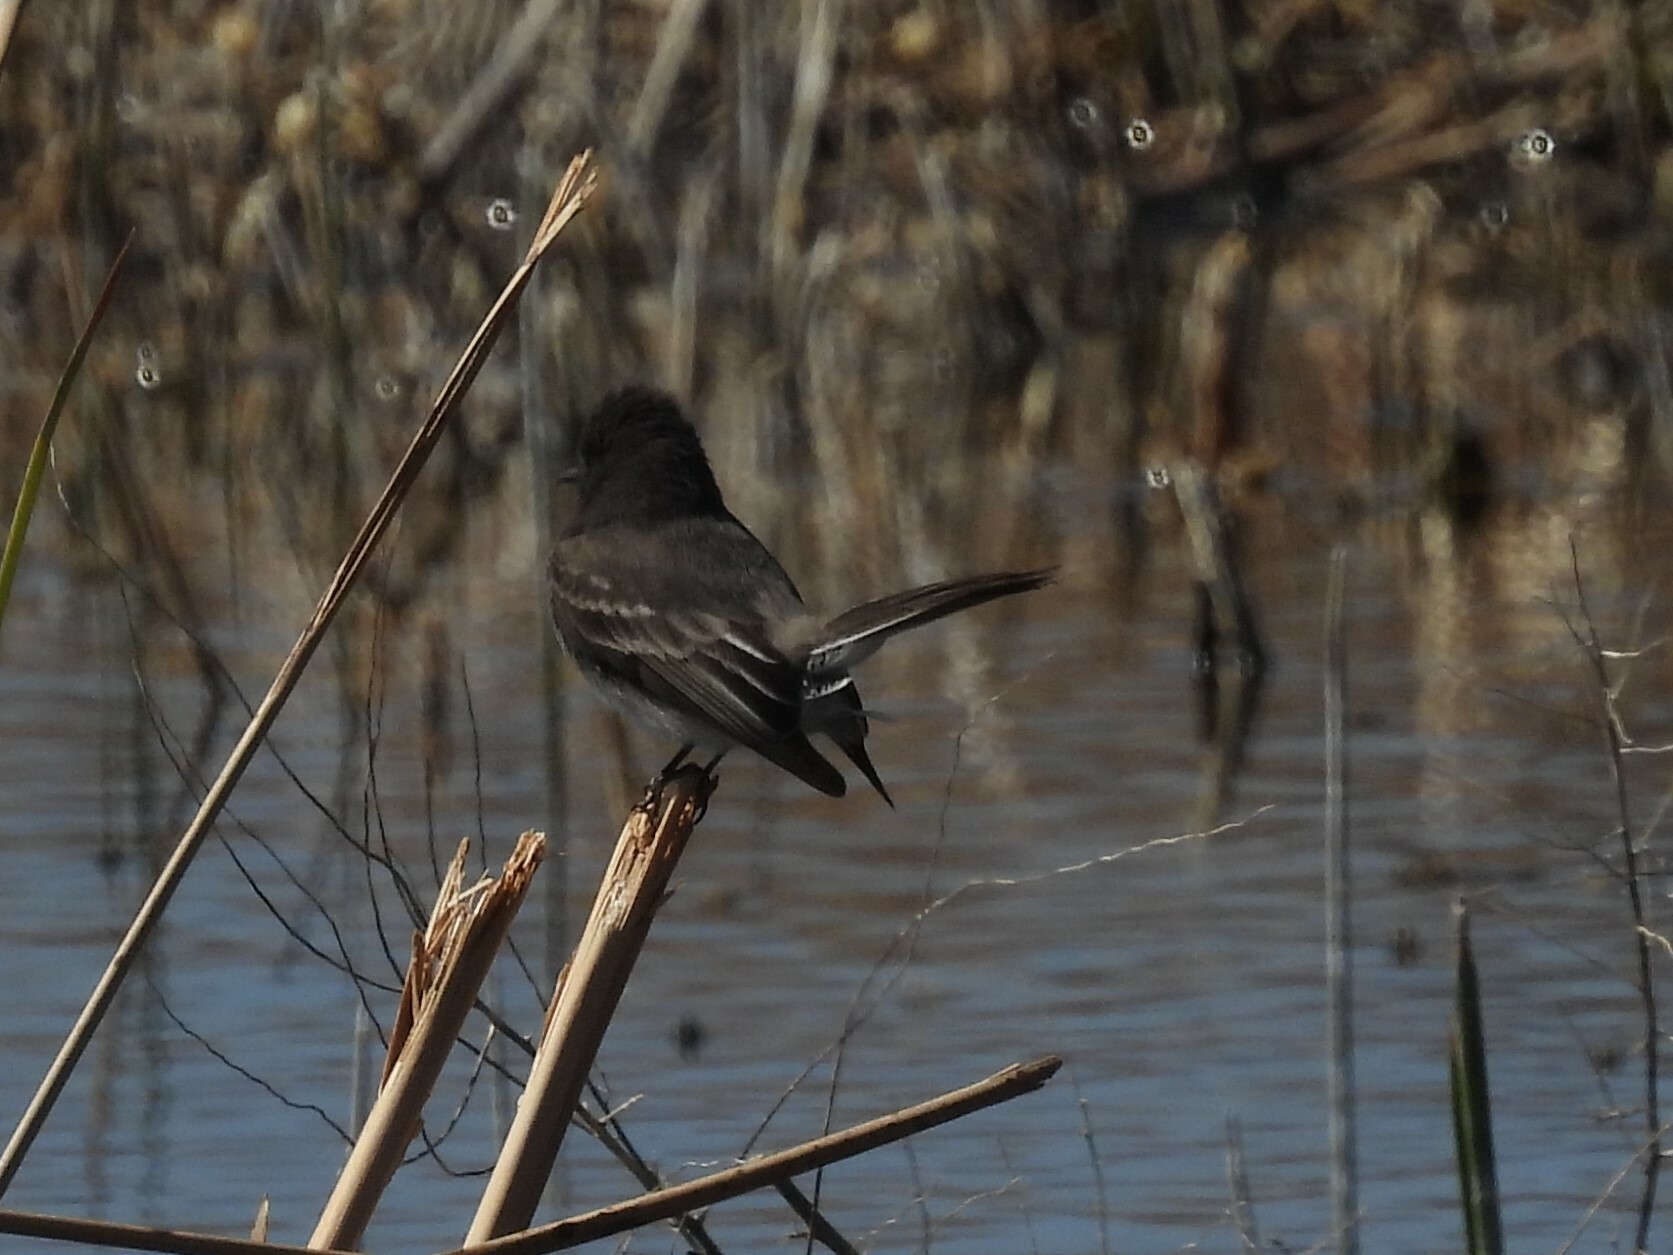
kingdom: Animalia
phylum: Chordata
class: Aves
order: Passeriformes
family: Tyrannidae
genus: Sayornis
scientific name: Sayornis nigricans
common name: Black phoebe
